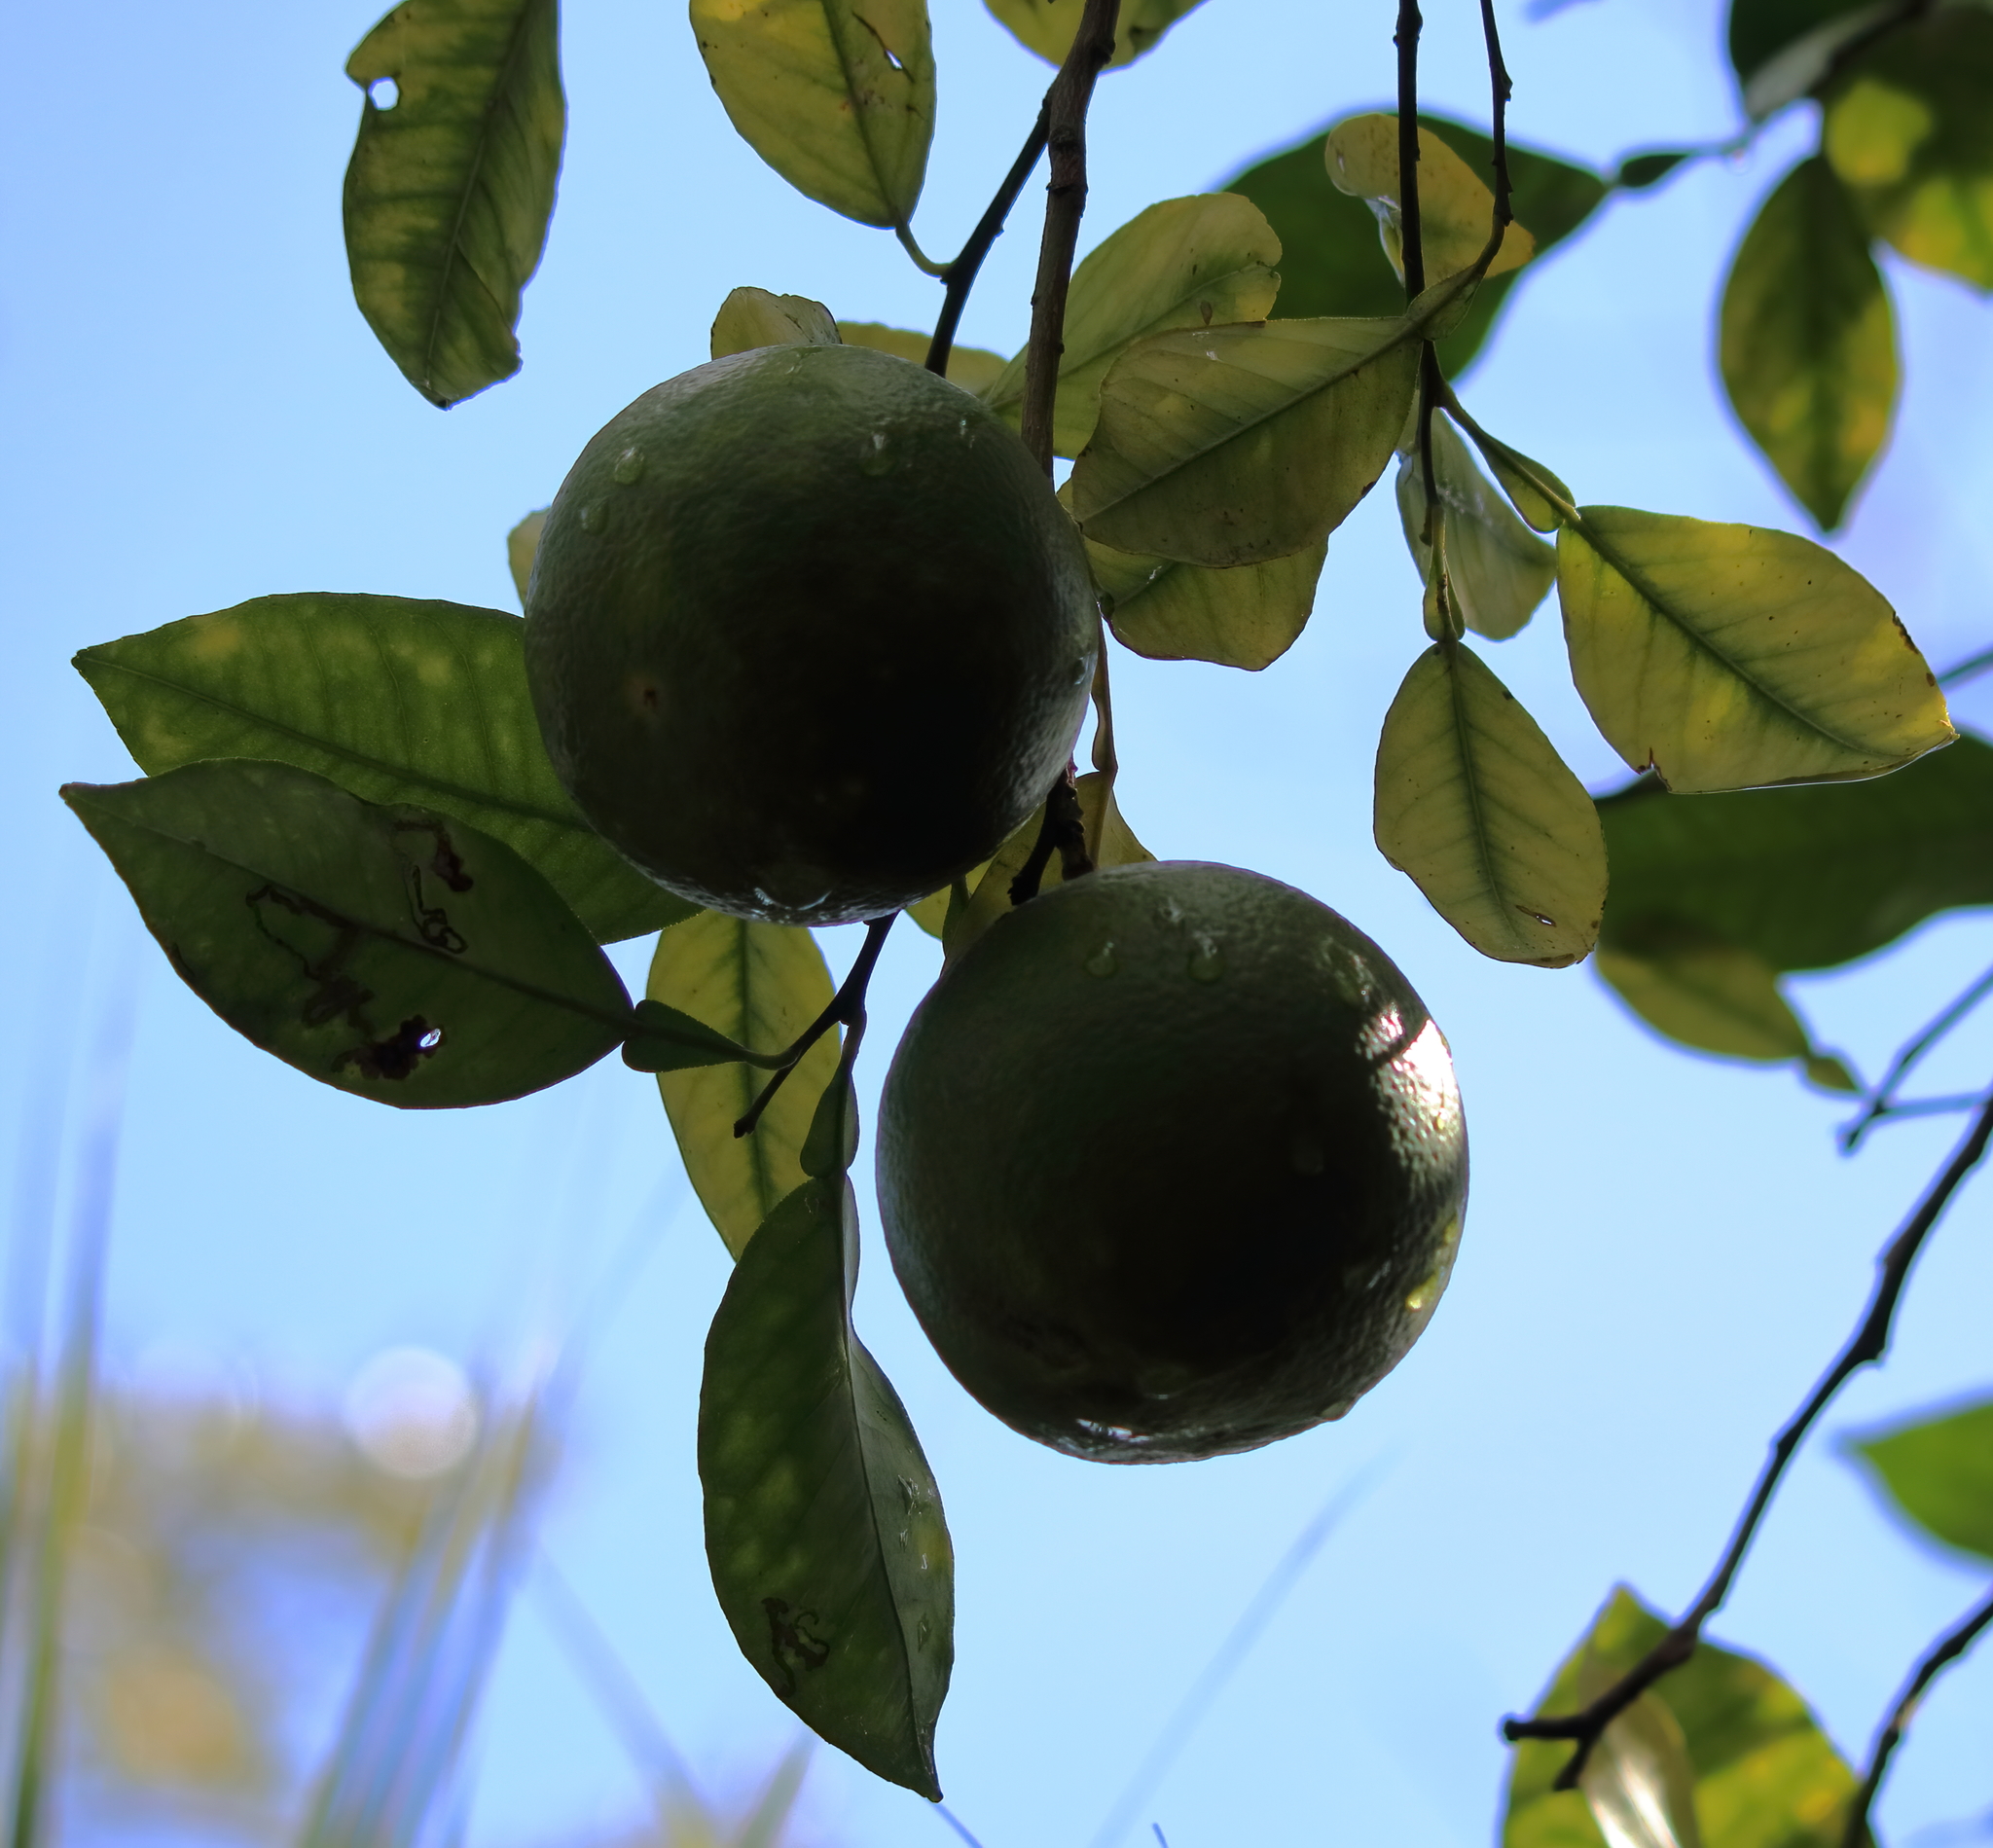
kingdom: Plantae
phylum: Tracheophyta
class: Magnoliopsida
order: Sapindales
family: Rutaceae
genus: Citrus
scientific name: Citrus aurantium
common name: Sour orange
